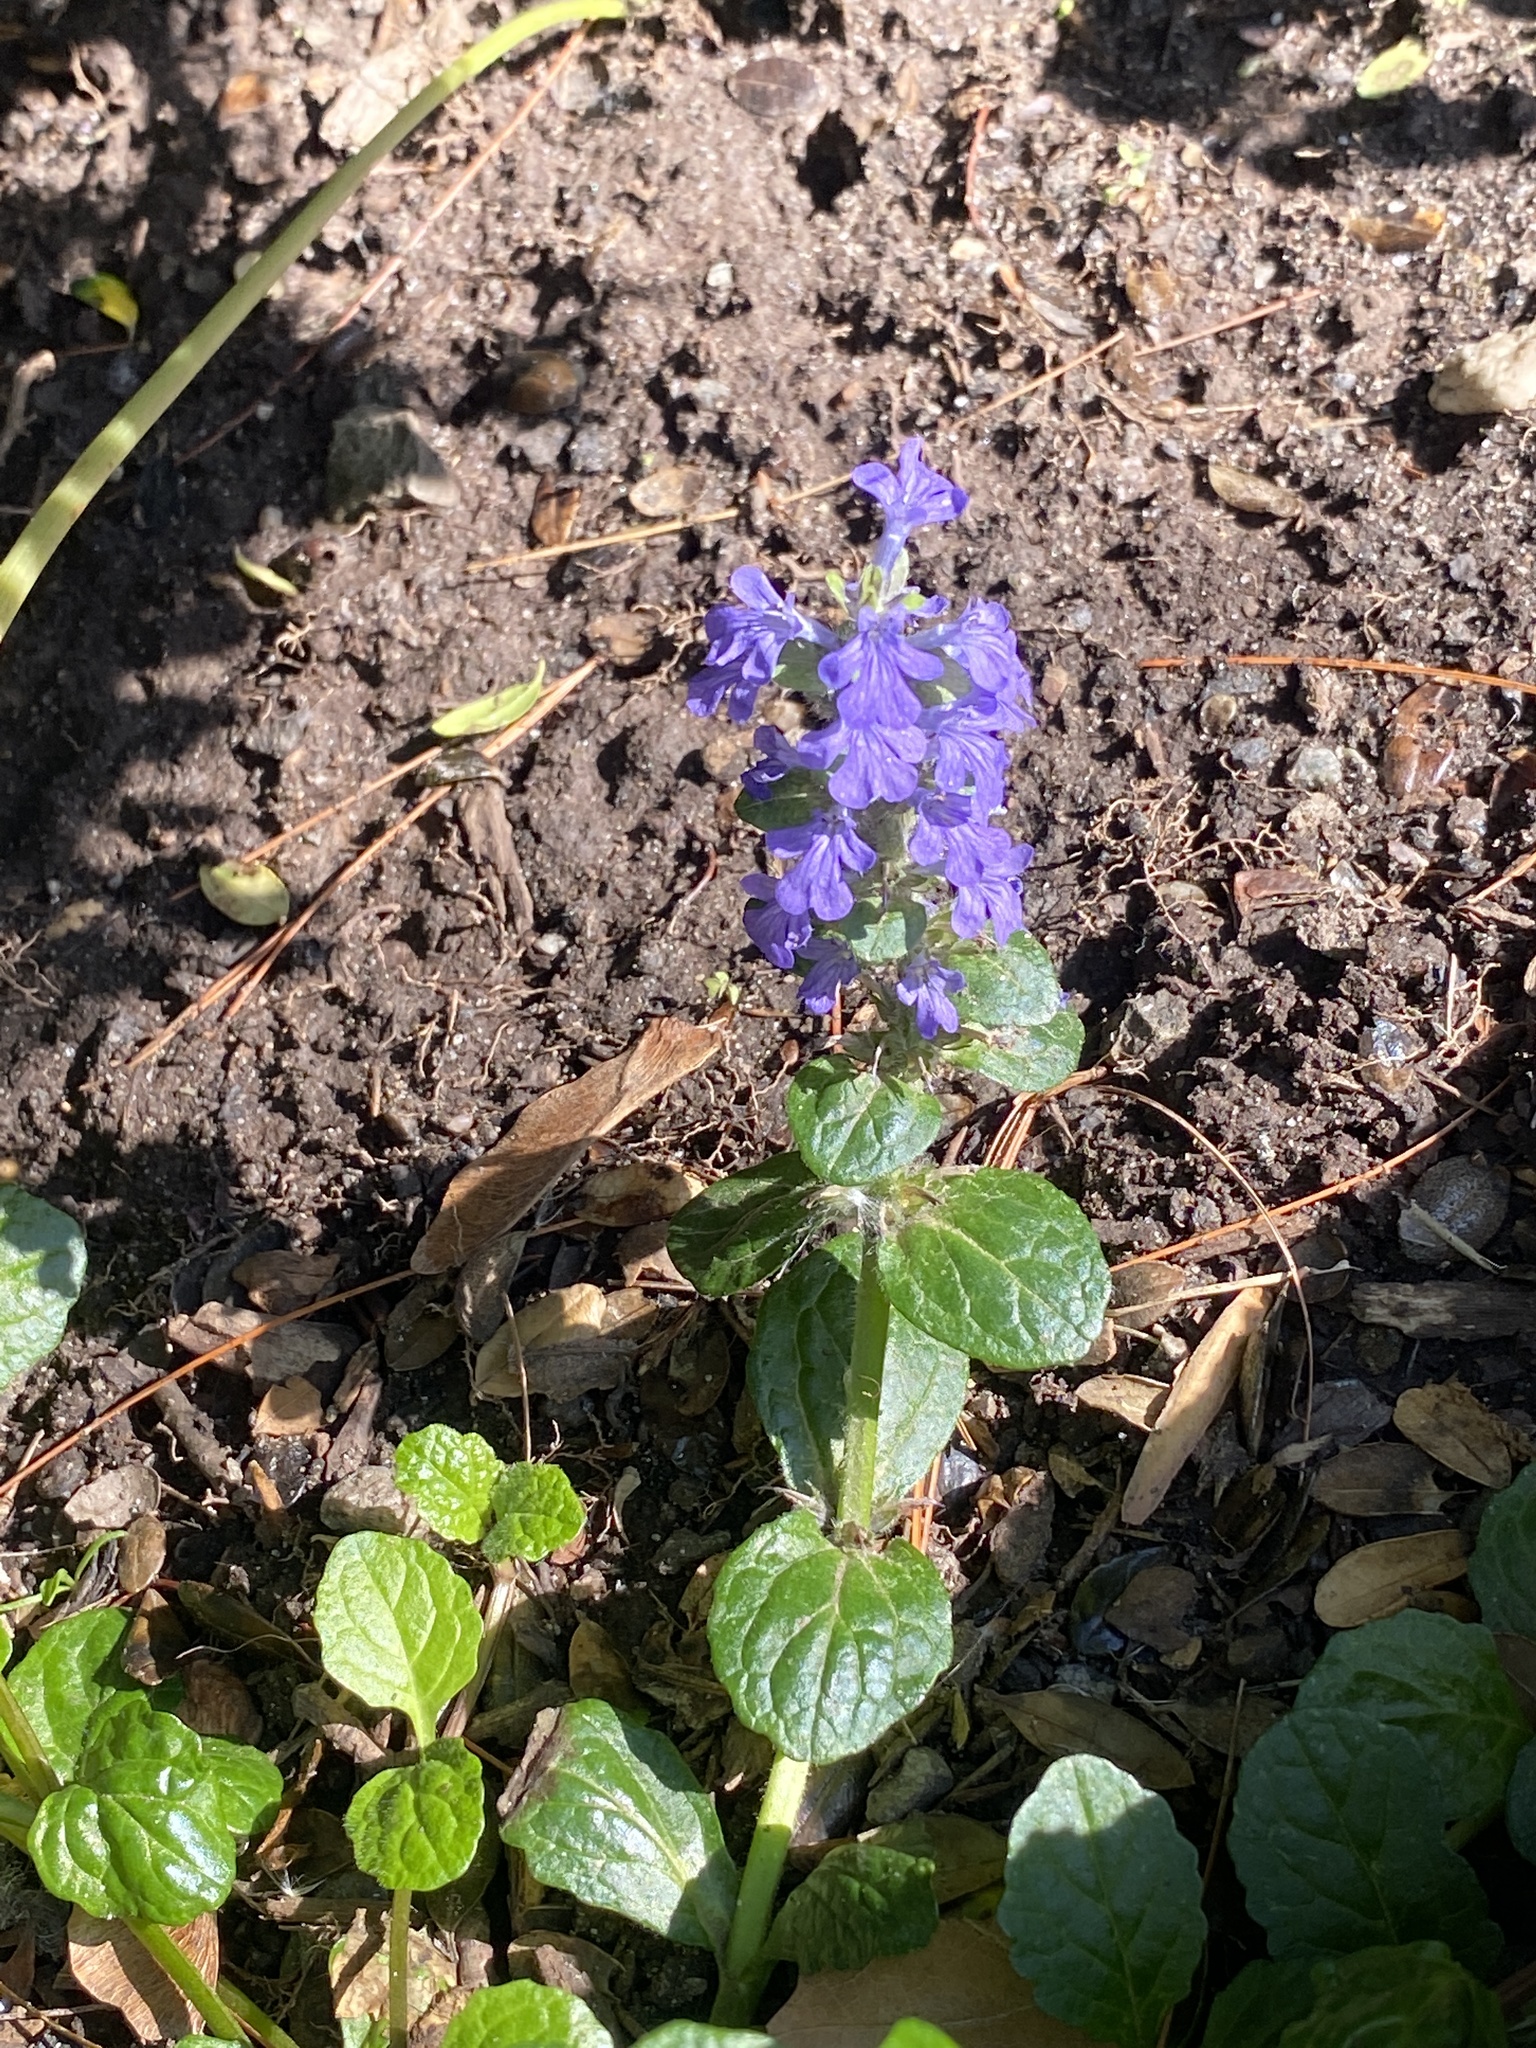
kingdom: Plantae
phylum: Tracheophyta
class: Magnoliopsida
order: Lamiales
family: Lamiaceae
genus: Ajuga
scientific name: Ajuga reptans
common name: Bugle
